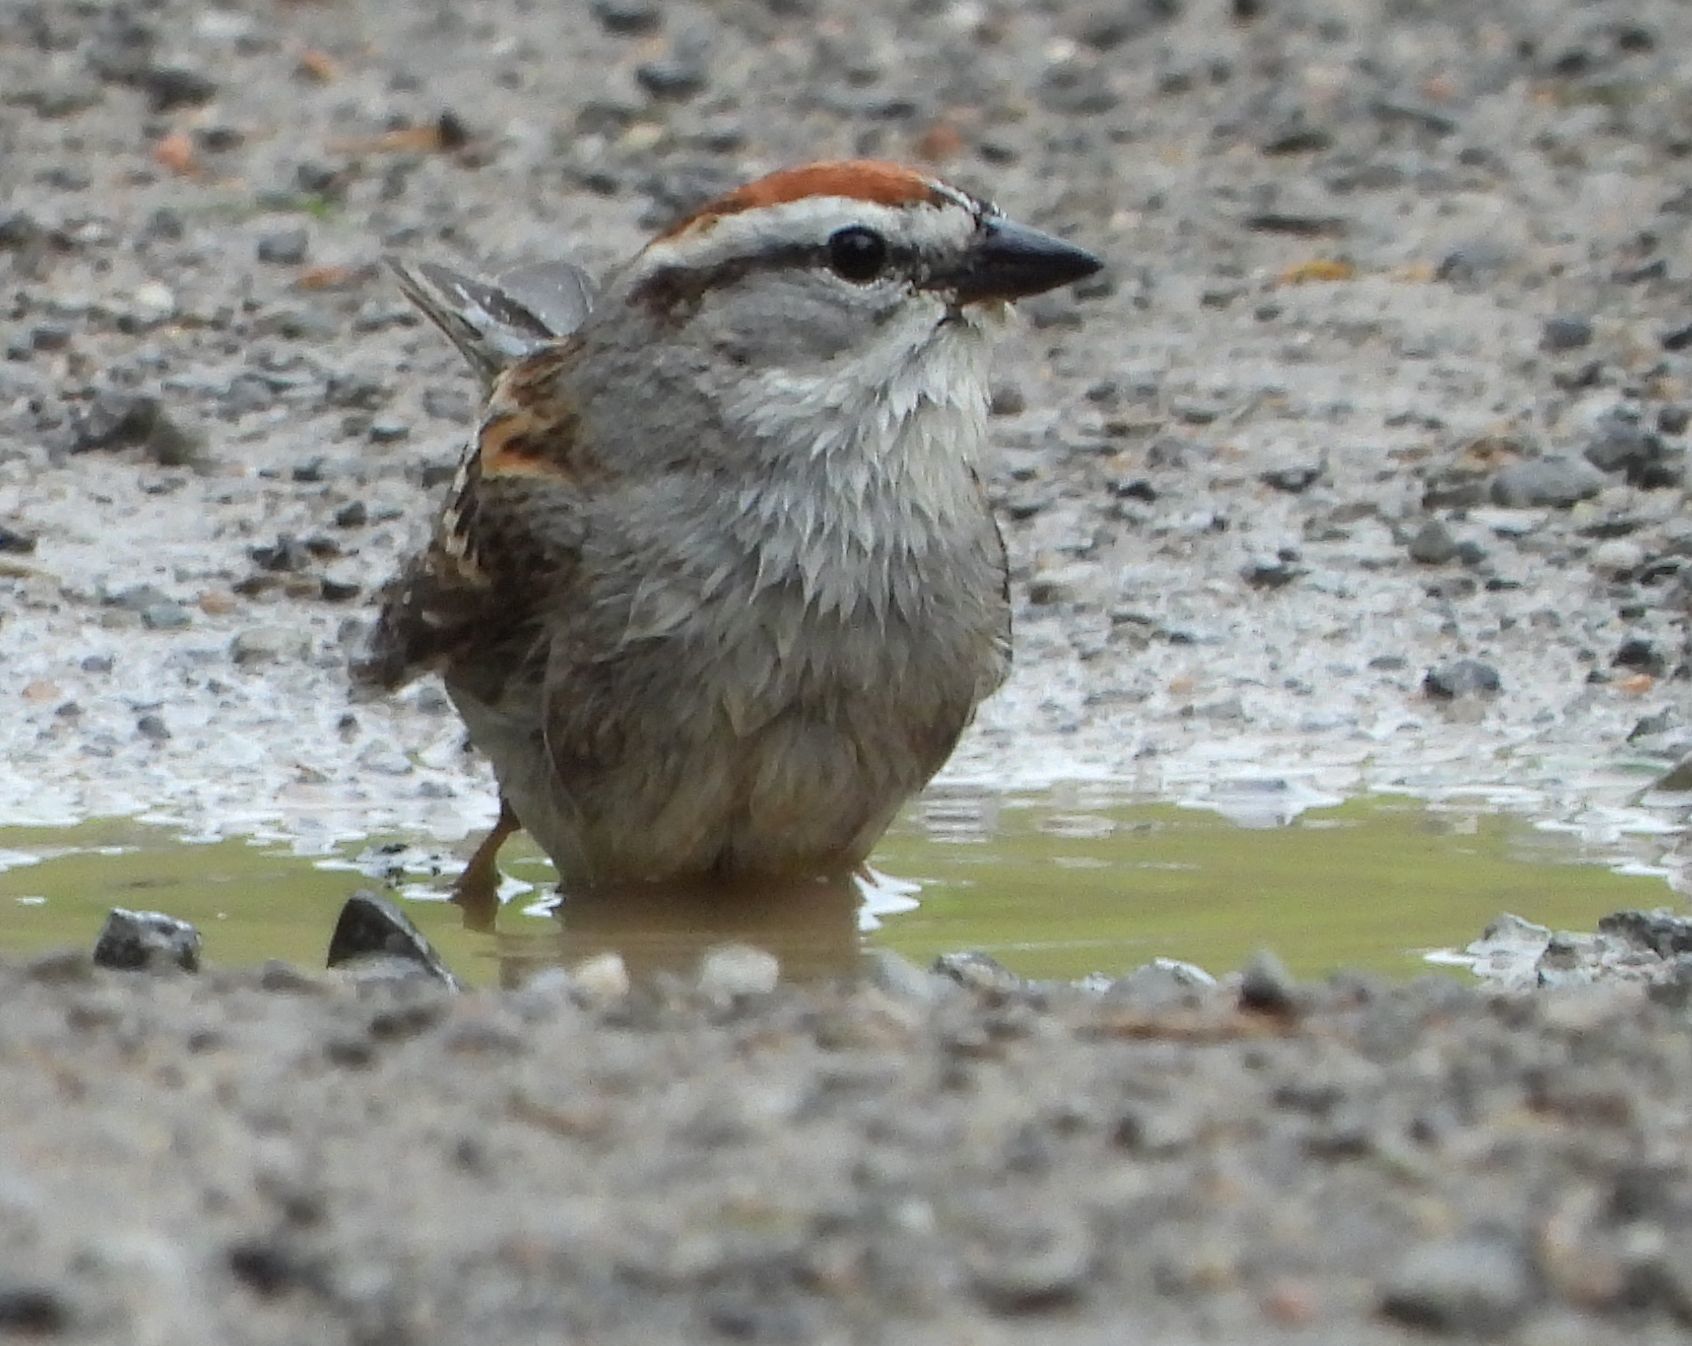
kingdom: Animalia
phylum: Chordata
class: Aves
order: Passeriformes
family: Passerellidae
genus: Spizella
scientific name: Spizella passerina
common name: Chipping sparrow
